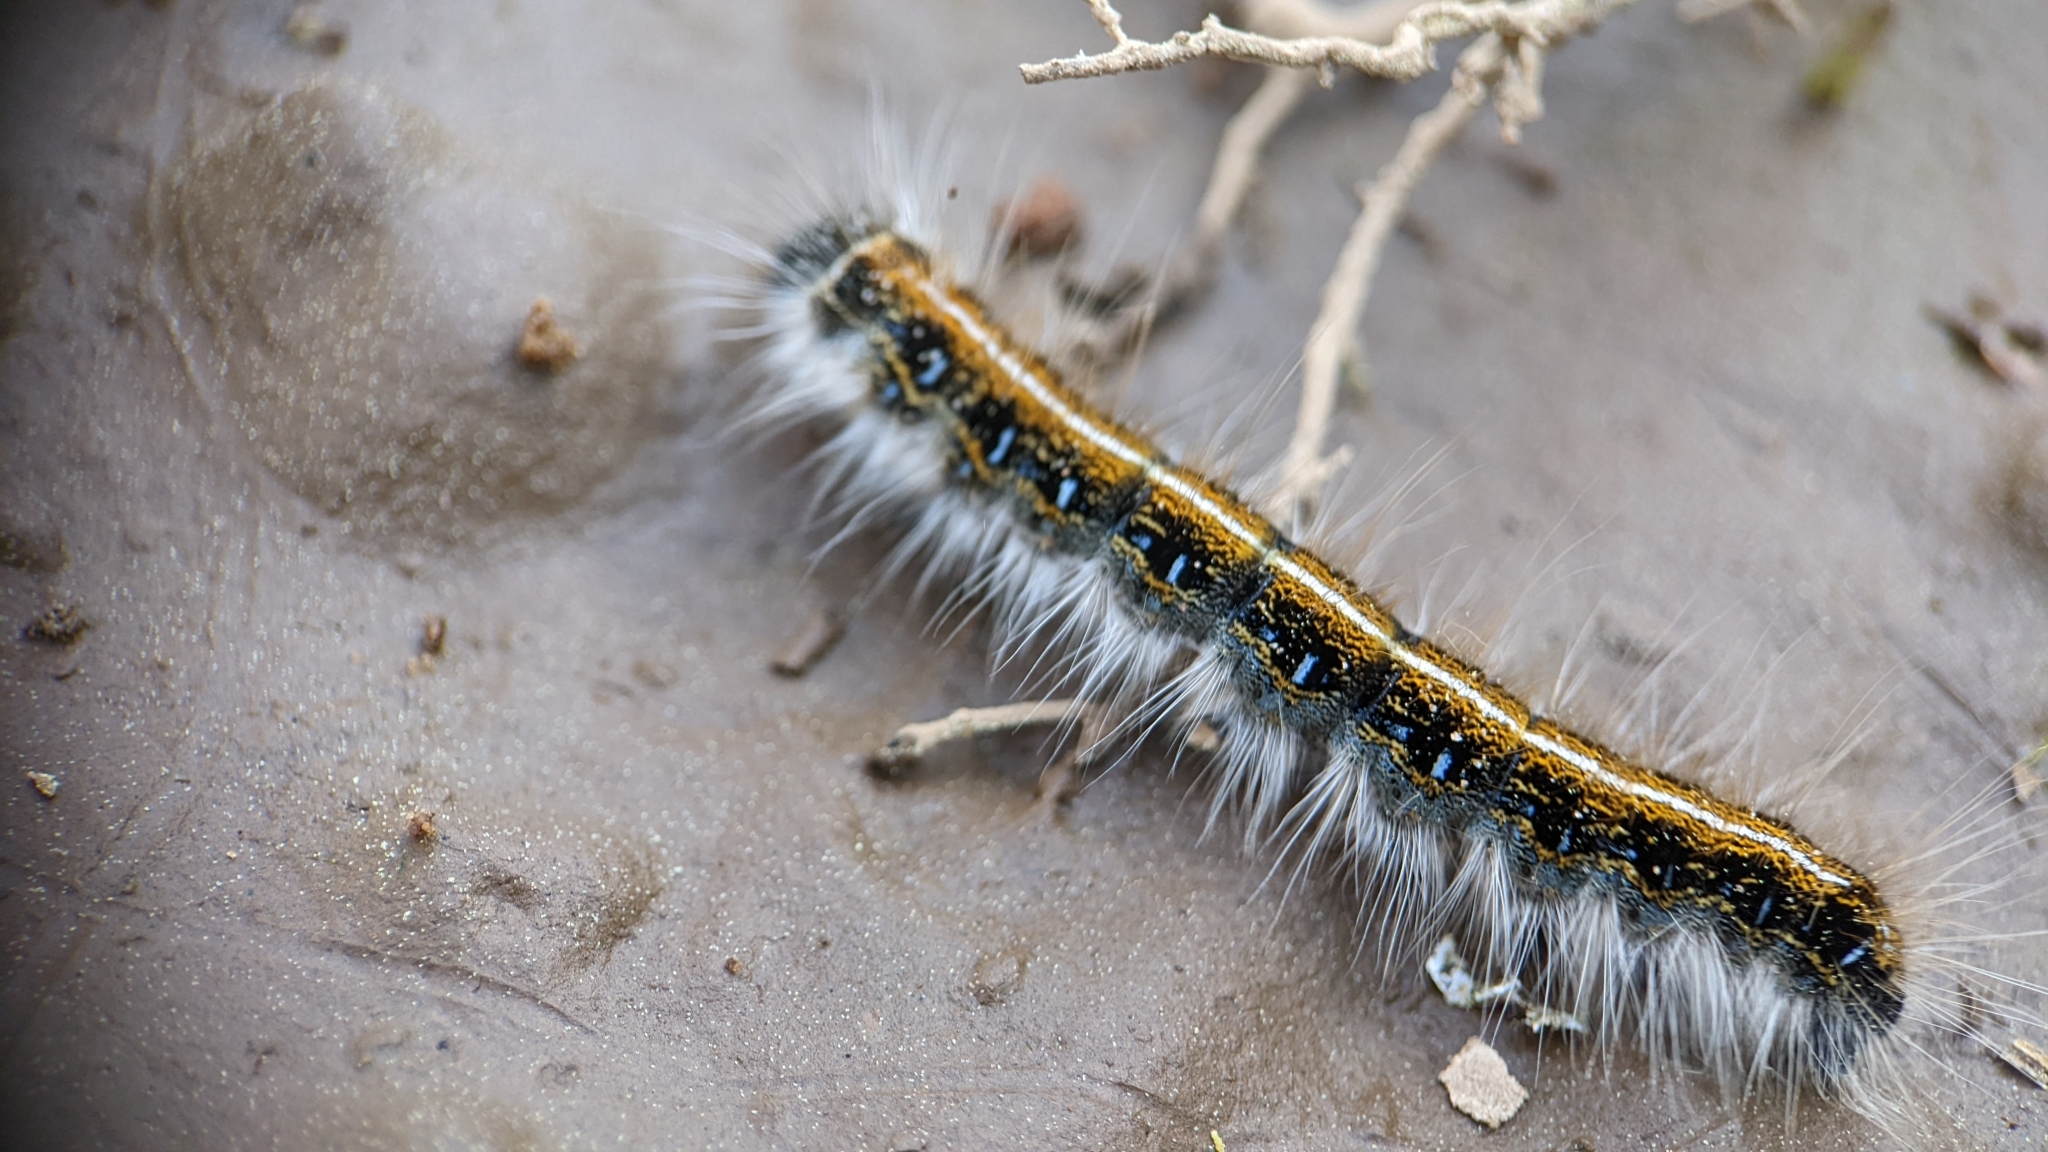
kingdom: Animalia
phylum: Arthropoda
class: Insecta
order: Lepidoptera
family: Lasiocampidae
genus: Malacosoma
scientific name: Malacosoma americana
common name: Eastern tent caterpillar moth
